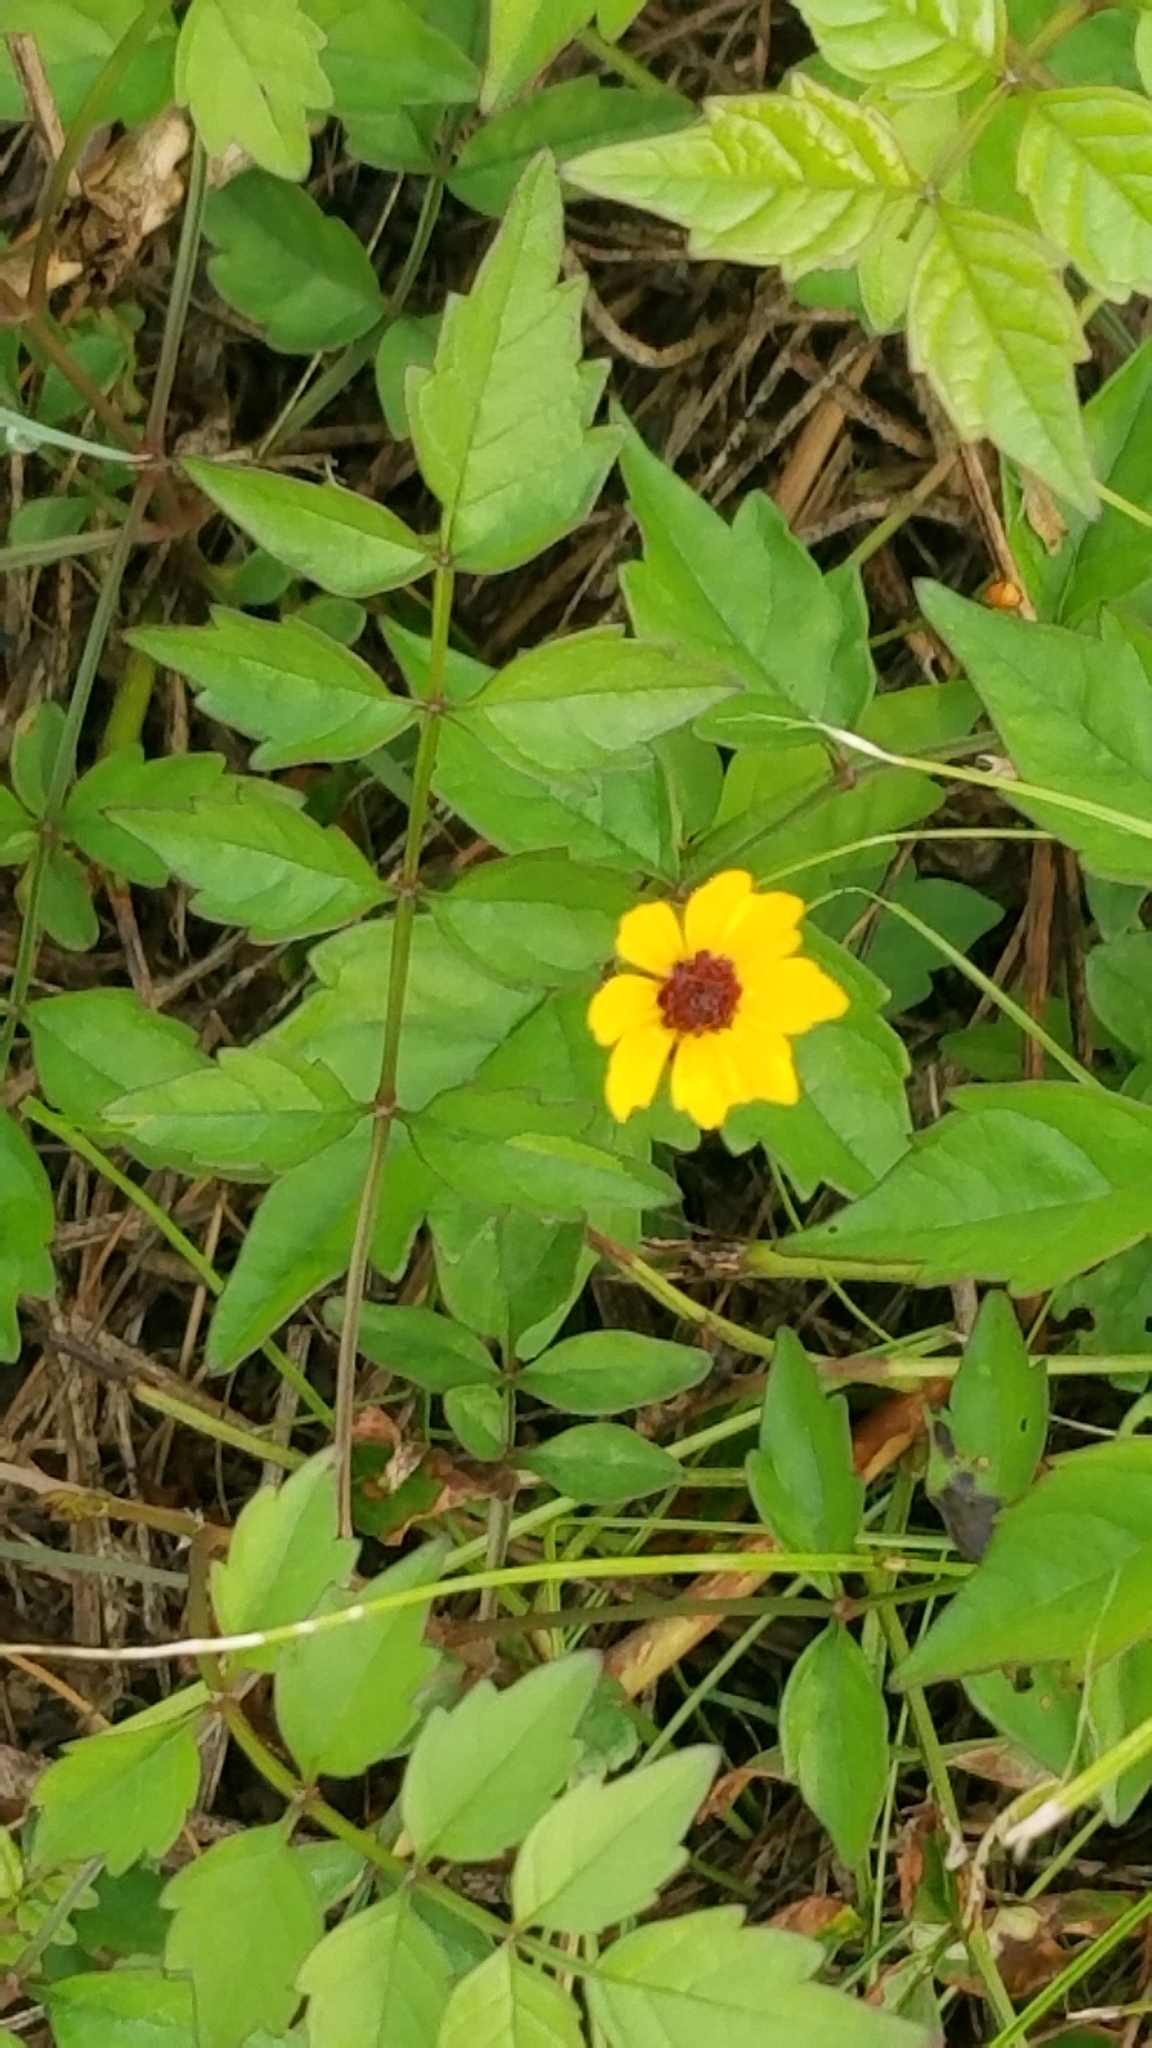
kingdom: Plantae
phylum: Tracheophyta
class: Magnoliopsida
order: Asterales
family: Asteraceae
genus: Coreopsis
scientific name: Coreopsis tinctoria
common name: Garden tickseed
